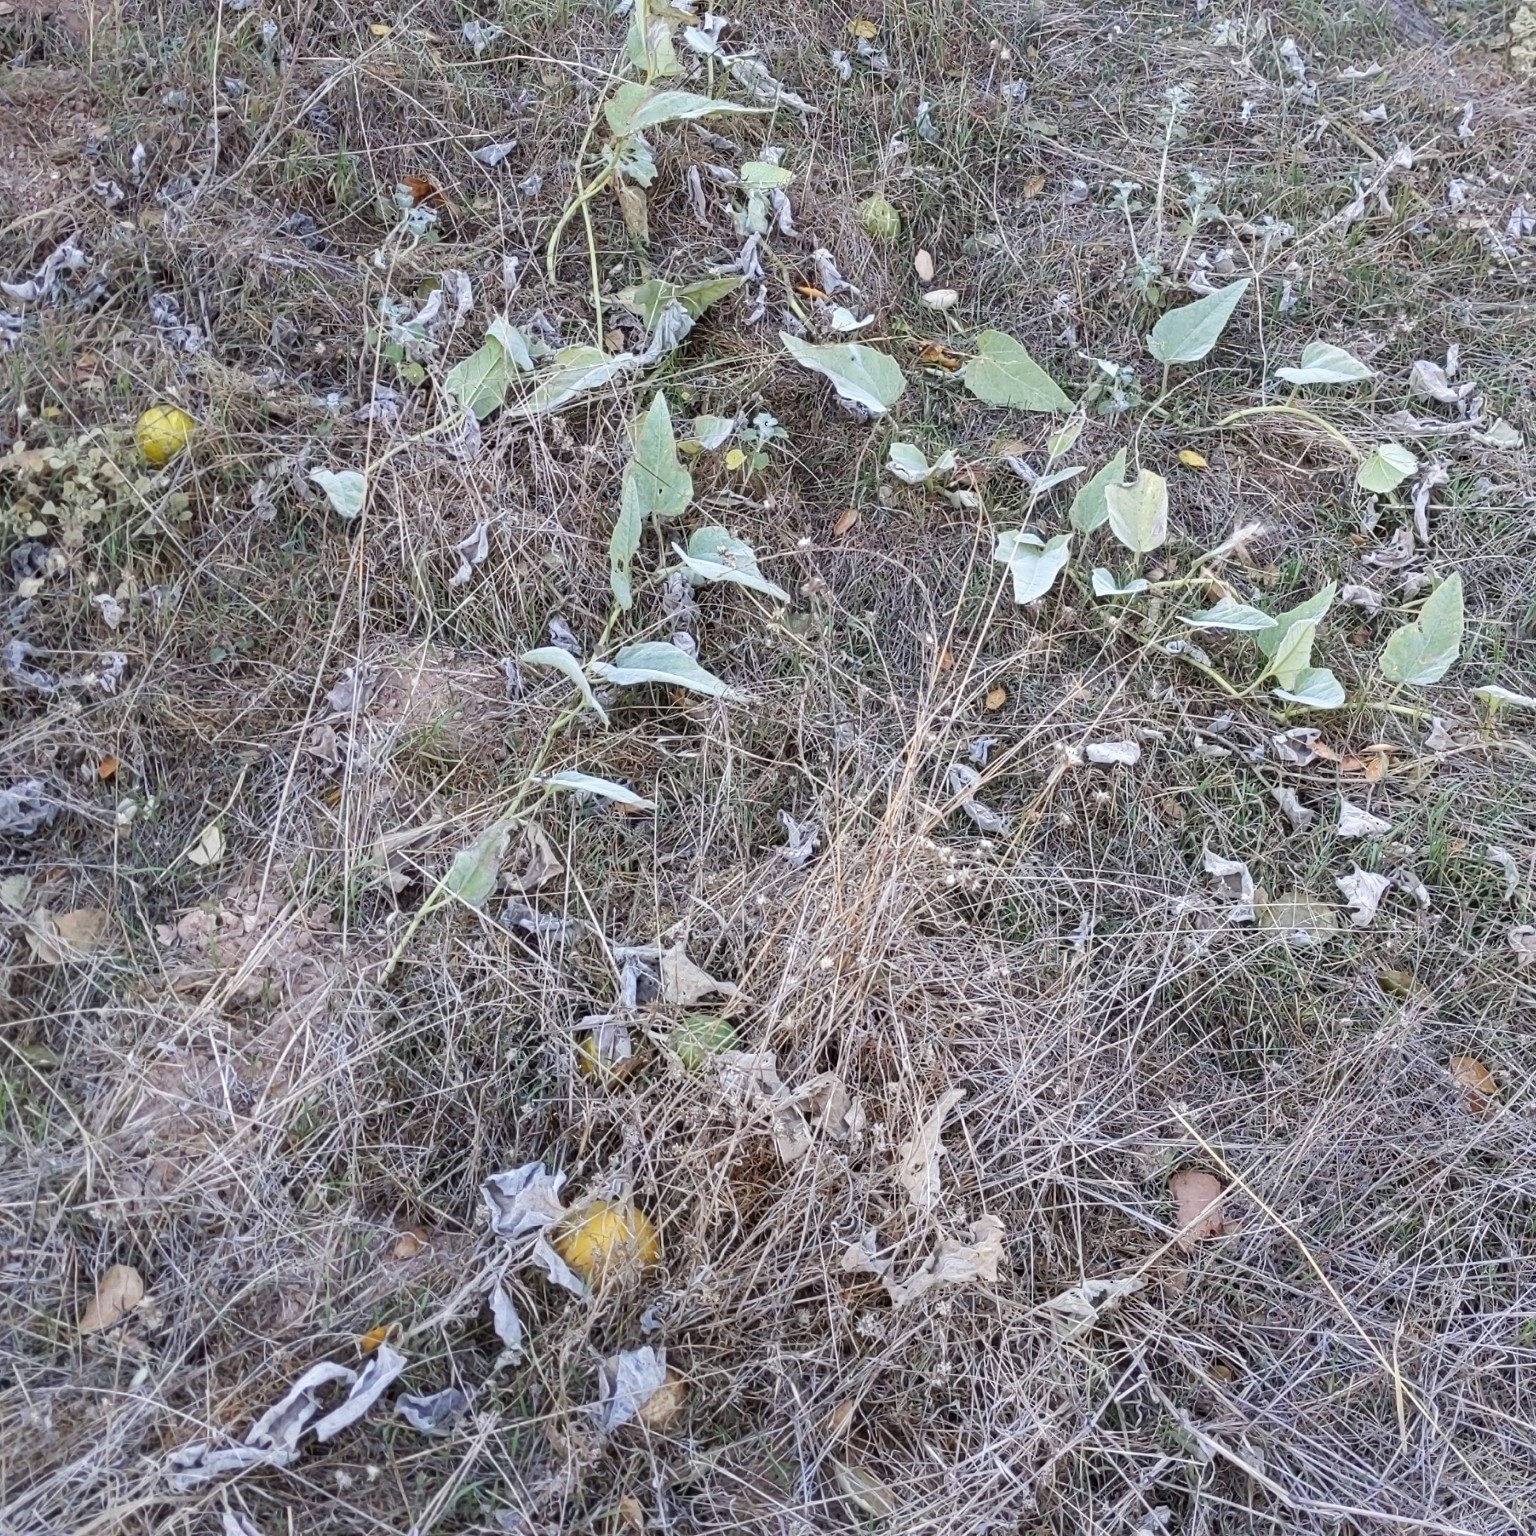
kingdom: Plantae
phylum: Tracheophyta
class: Magnoliopsida
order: Cucurbitales
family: Cucurbitaceae
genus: Cucurbita
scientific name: Cucurbita foetidissima
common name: Buffalo gourd
